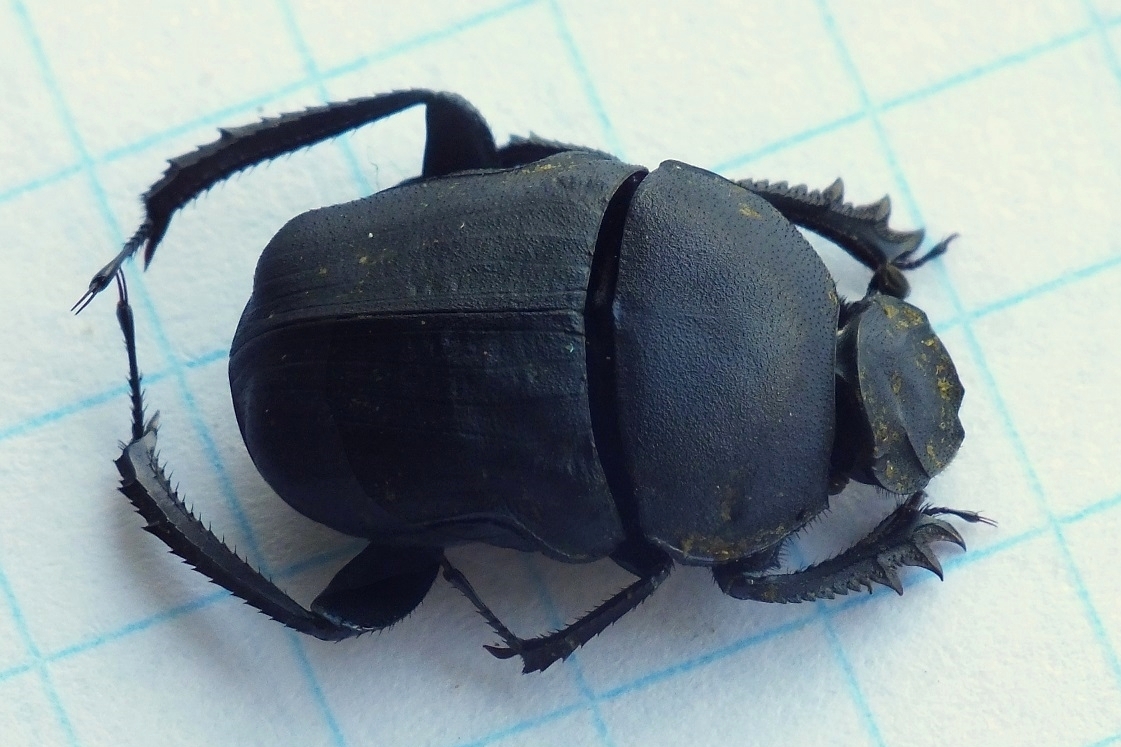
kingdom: Animalia
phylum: Arthropoda
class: Insecta
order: Coleoptera
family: Scarabaeidae
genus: Gymnopleurus
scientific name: Gymnopleurus mopsus
